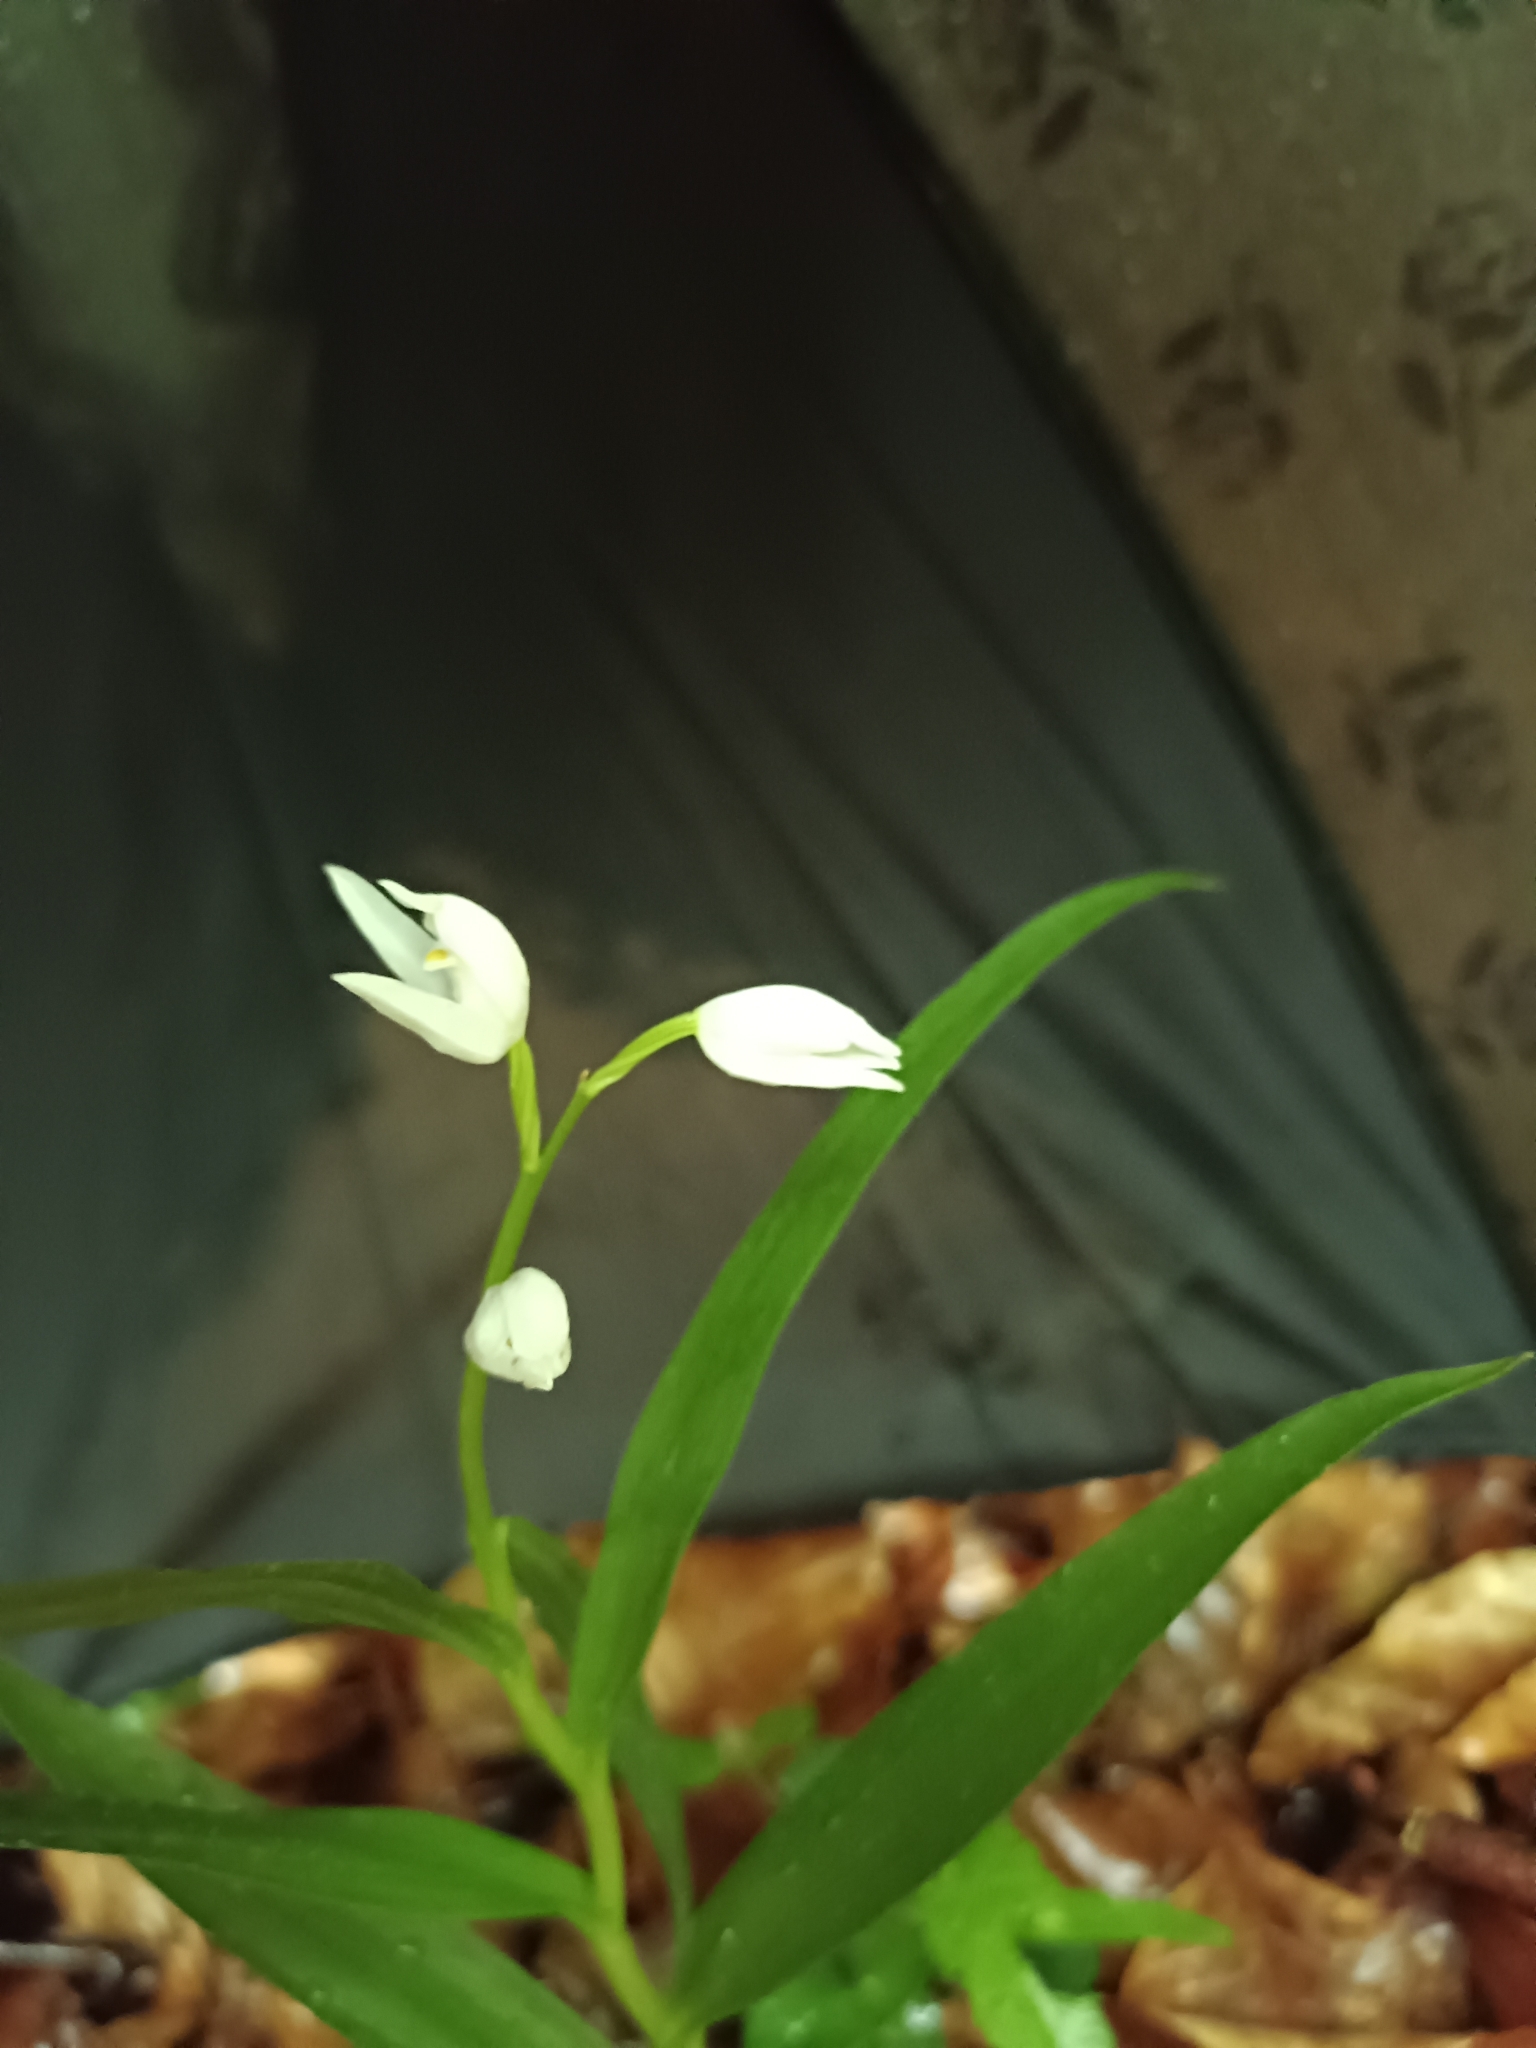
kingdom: Plantae
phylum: Tracheophyta
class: Liliopsida
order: Asparagales
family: Orchidaceae
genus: Cephalanthera
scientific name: Cephalanthera longifolia
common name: Narrow-leaved helleborine
